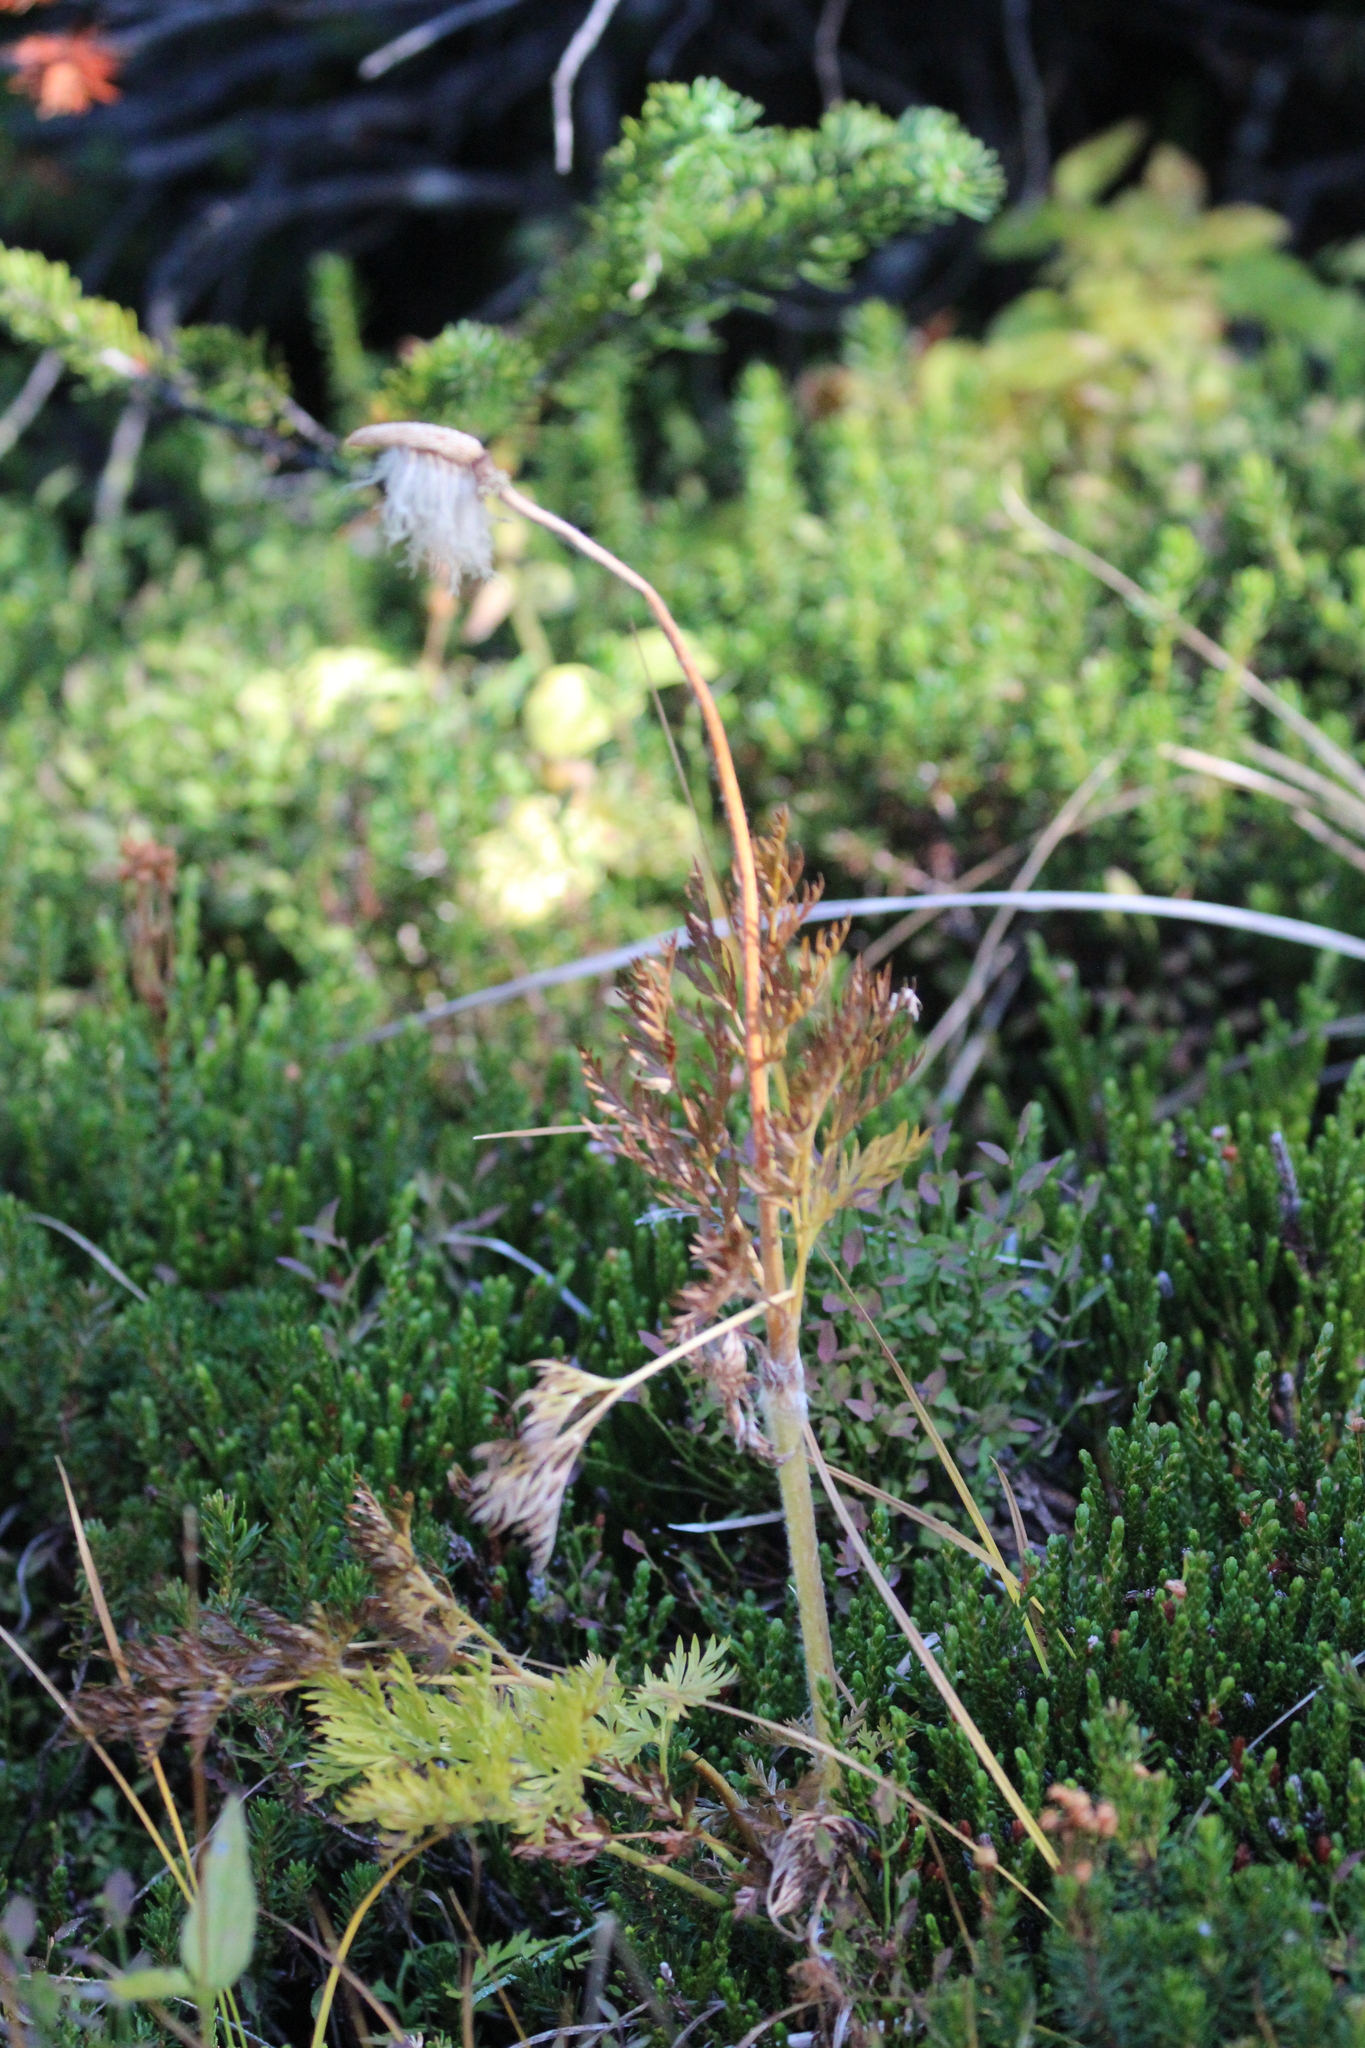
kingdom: Plantae
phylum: Tracheophyta
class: Magnoliopsida
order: Ranunculales
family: Ranunculaceae
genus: Pulsatilla
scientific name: Pulsatilla occidentalis
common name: Mountain pasqueflower
